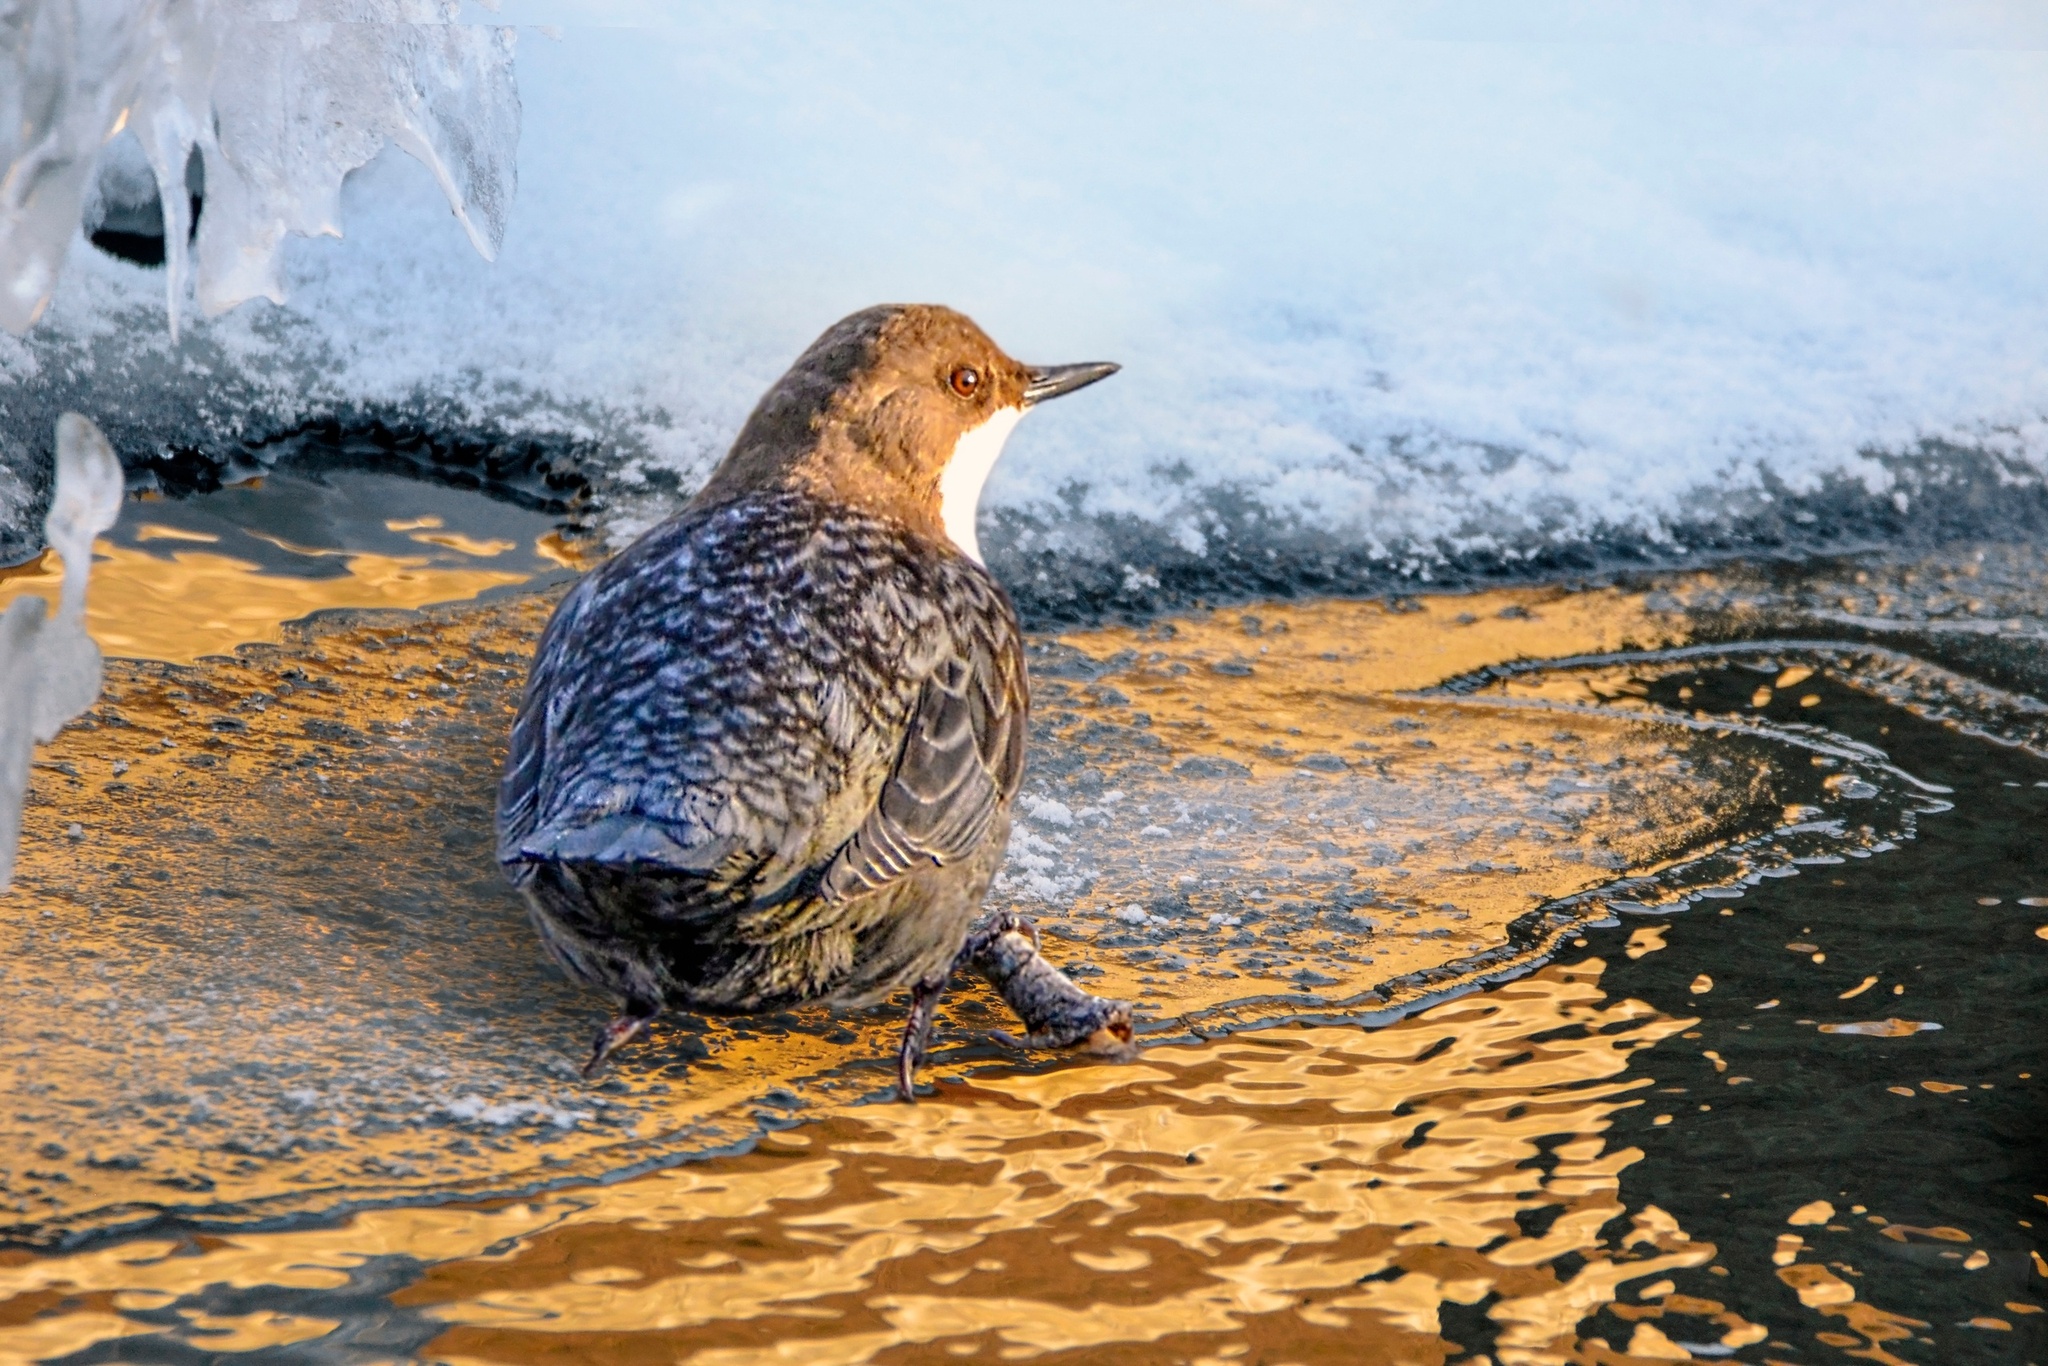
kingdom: Animalia
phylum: Chordata
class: Aves
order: Passeriformes
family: Cinclidae
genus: Cinclus
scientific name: Cinclus cinclus
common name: White-throated dipper
